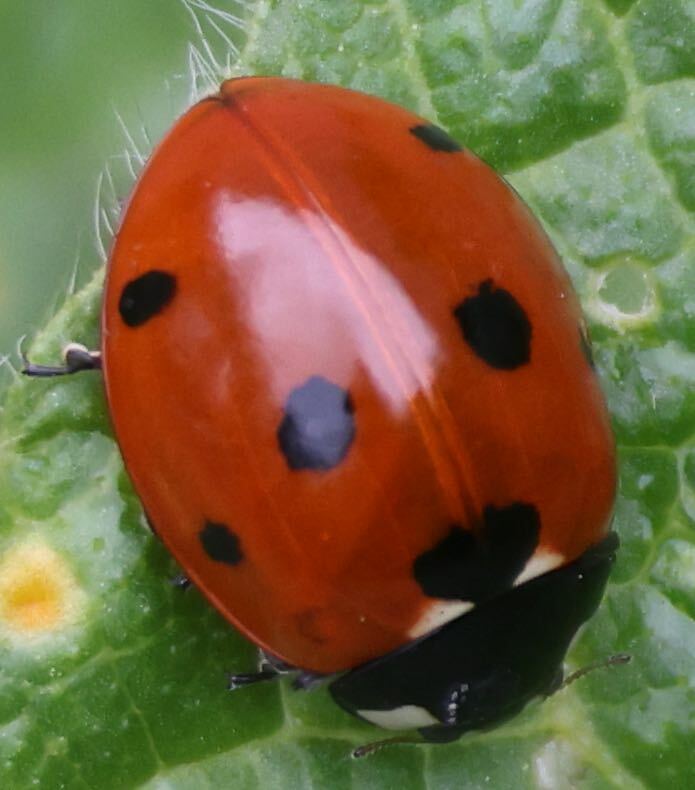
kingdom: Animalia
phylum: Arthropoda
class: Insecta
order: Coleoptera
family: Coccinellidae
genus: Coccinella
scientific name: Coccinella septempunctata
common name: Sevenspotted lady beetle
